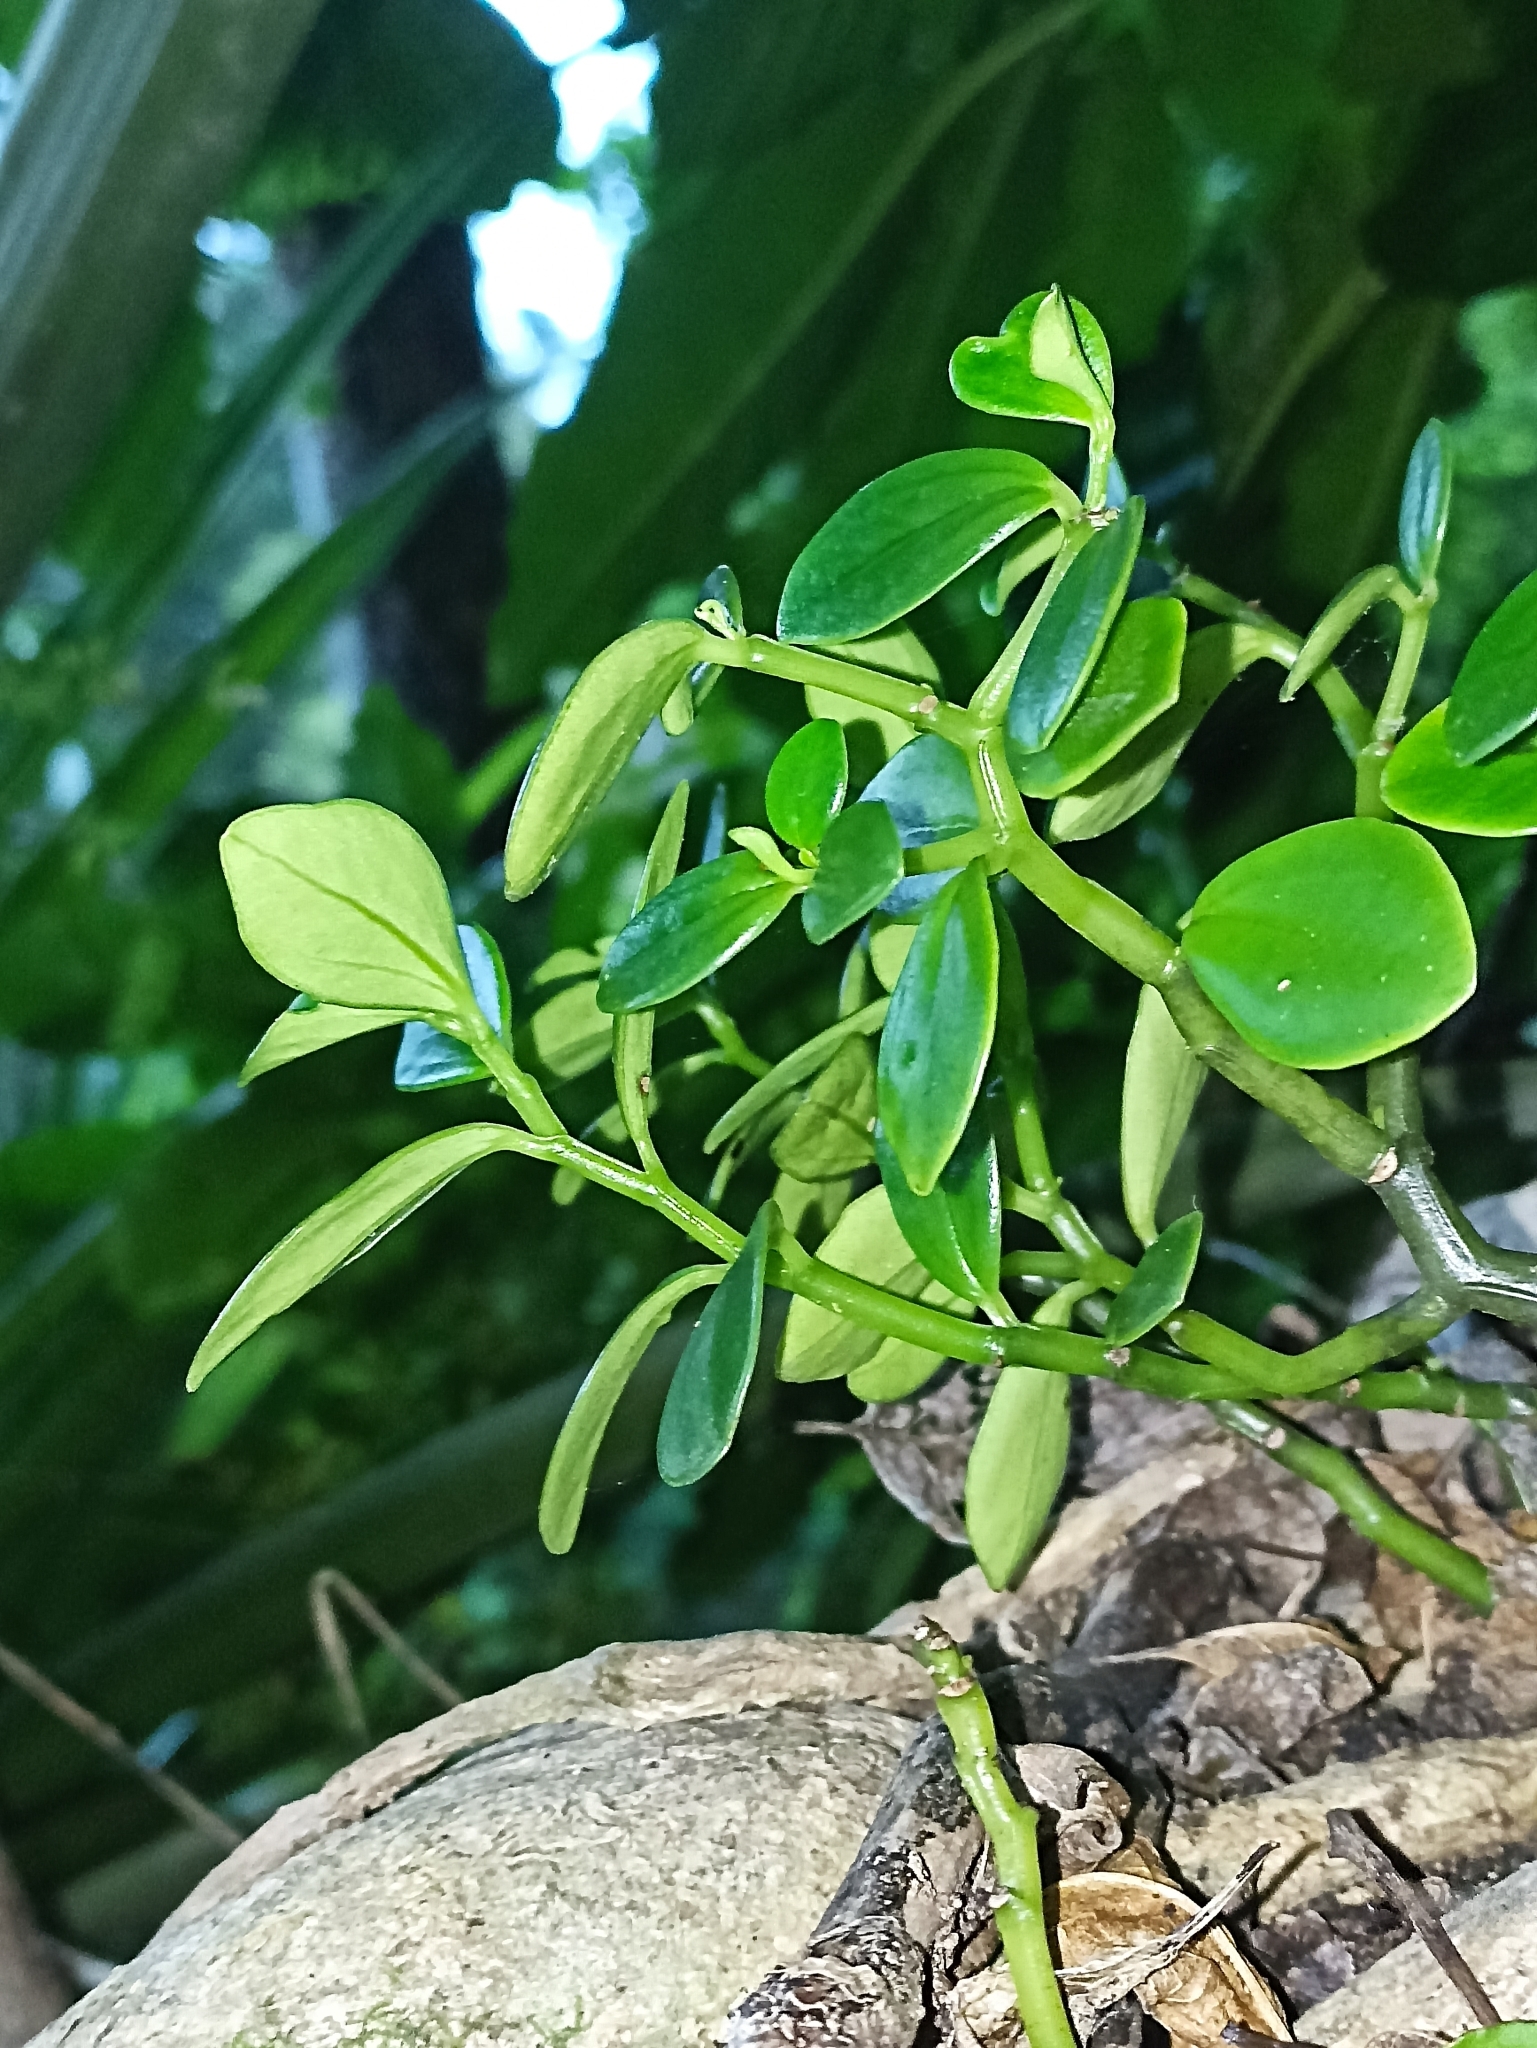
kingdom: Plantae
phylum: Tracheophyta
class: Magnoliopsida
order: Piperales
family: Piperaceae
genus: Peperomia
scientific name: Peperomia urvilleana
